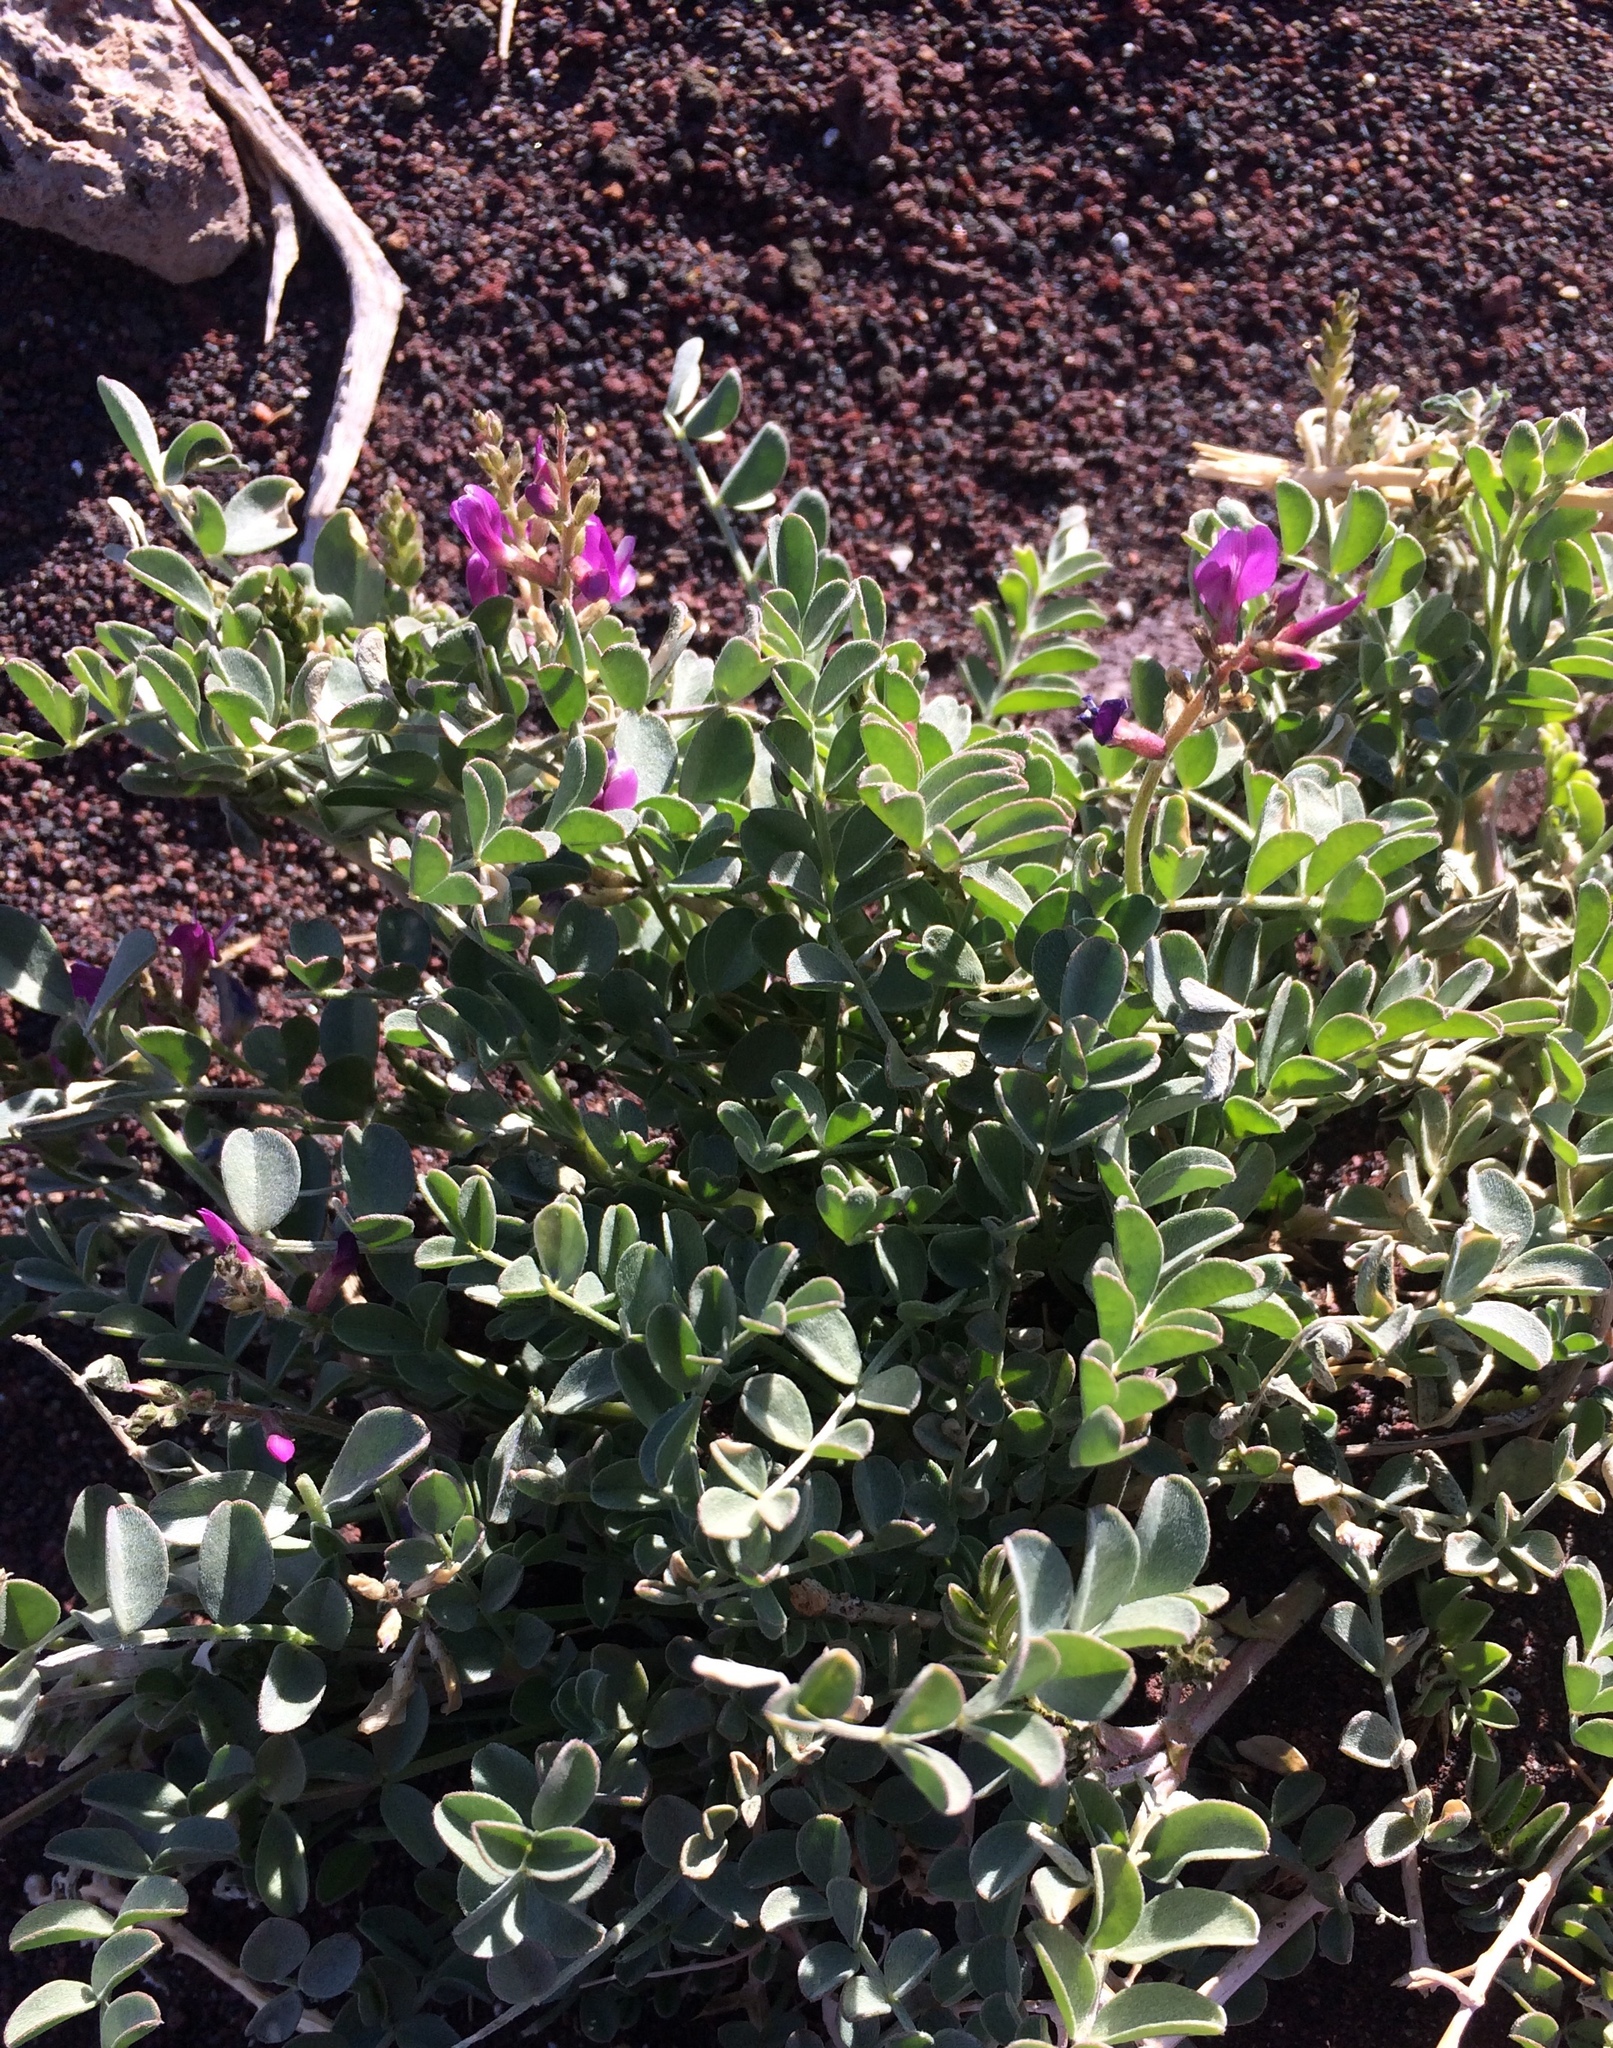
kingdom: Plantae
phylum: Tracheophyta
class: Magnoliopsida
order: Fabales
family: Fabaceae
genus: Astragalus
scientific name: Astragalus lentiginosus
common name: Freckled milkvetch
